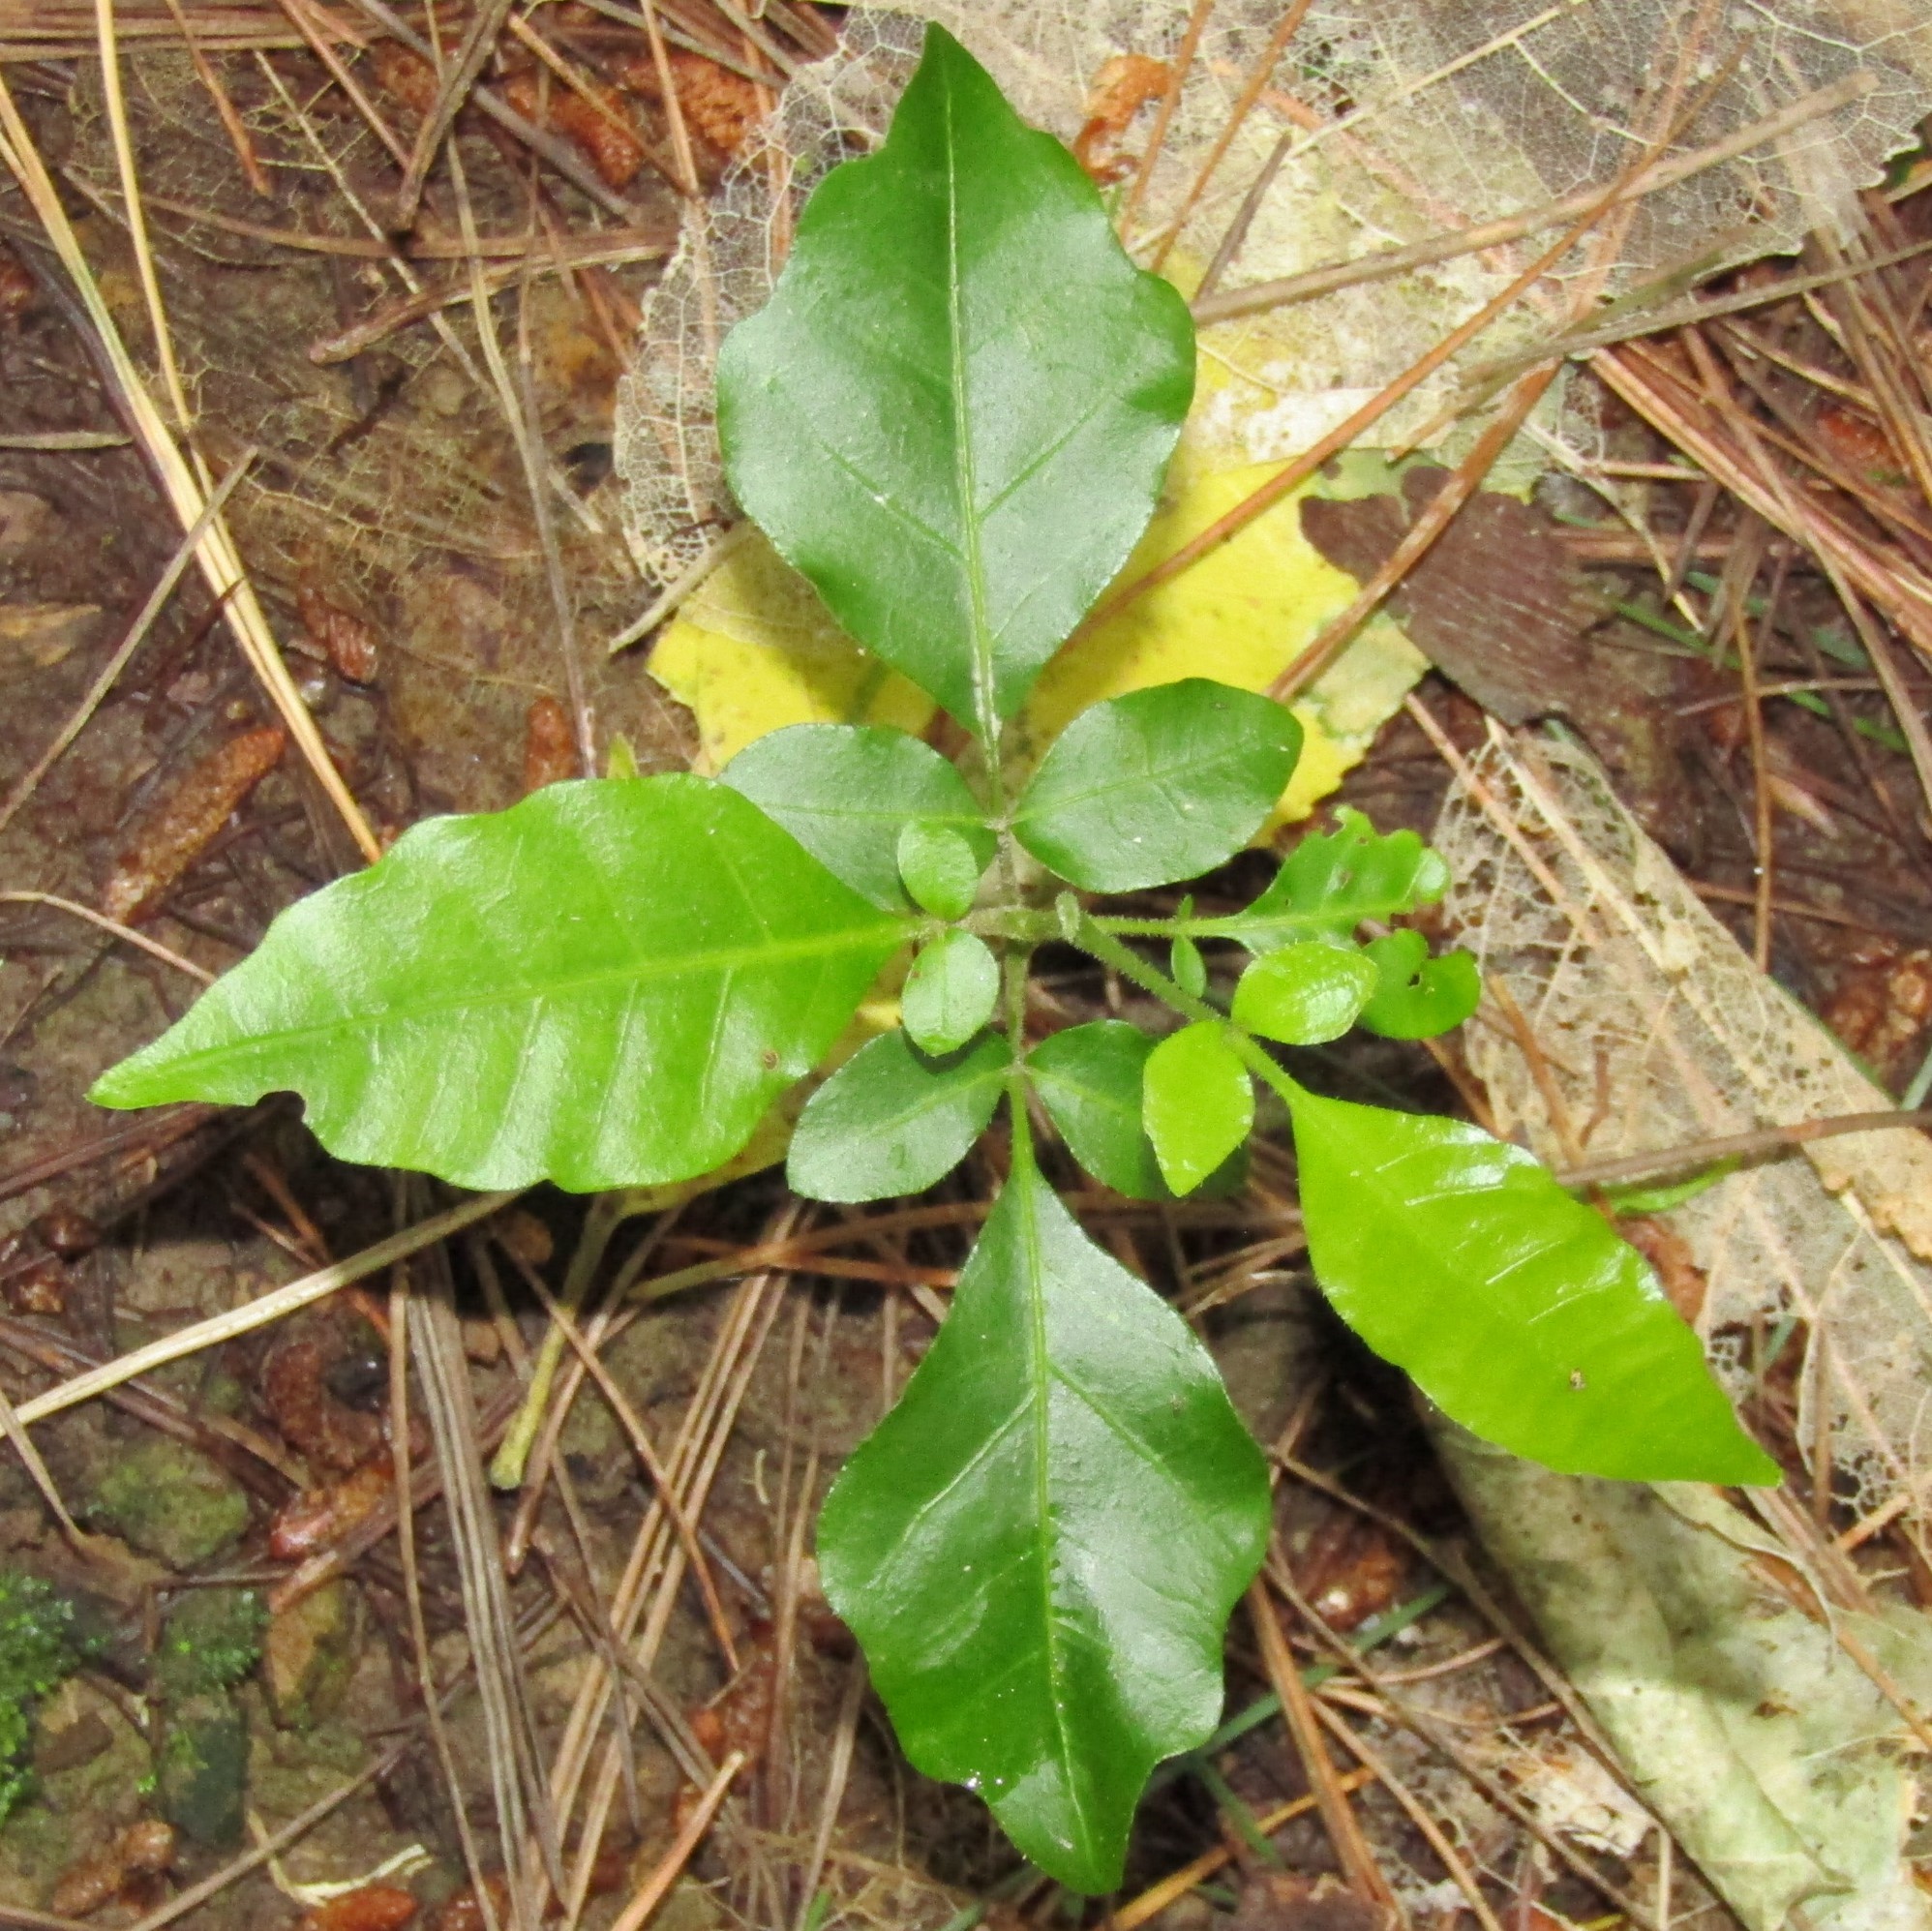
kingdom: Plantae
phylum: Tracheophyta
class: Magnoliopsida
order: Sapindales
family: Meliaceae
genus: Didymocheton
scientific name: Didymocheton spectabilis
